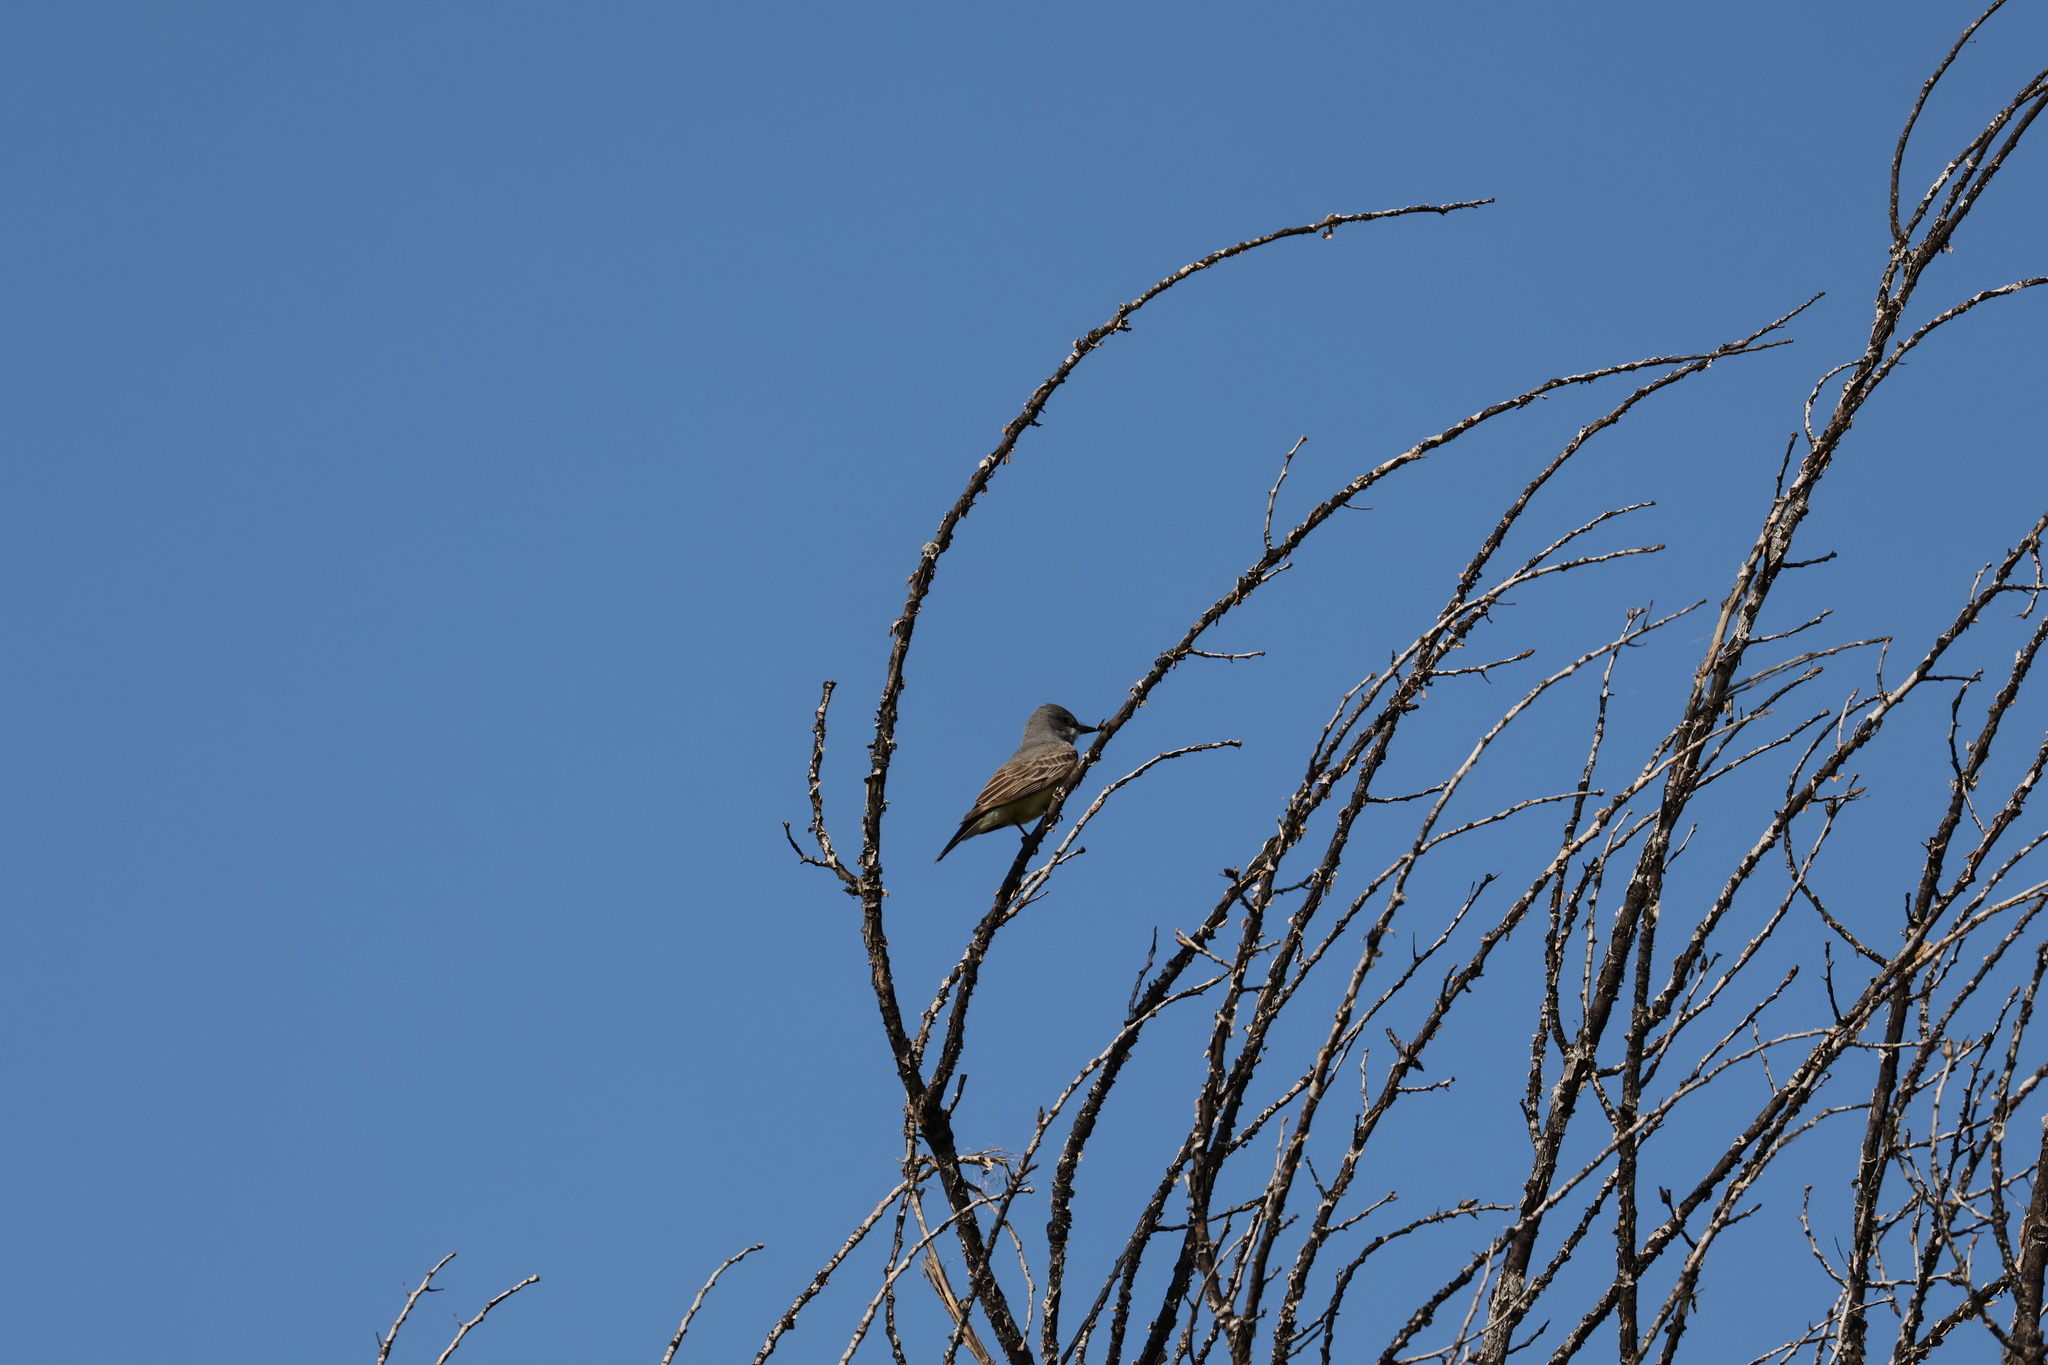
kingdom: Animalia
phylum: Chordata
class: Aves
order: Passeriformes
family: Tyrannidae
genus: Tyrannus
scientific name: Tyrannus vociferans
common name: Cassin's kingbird
